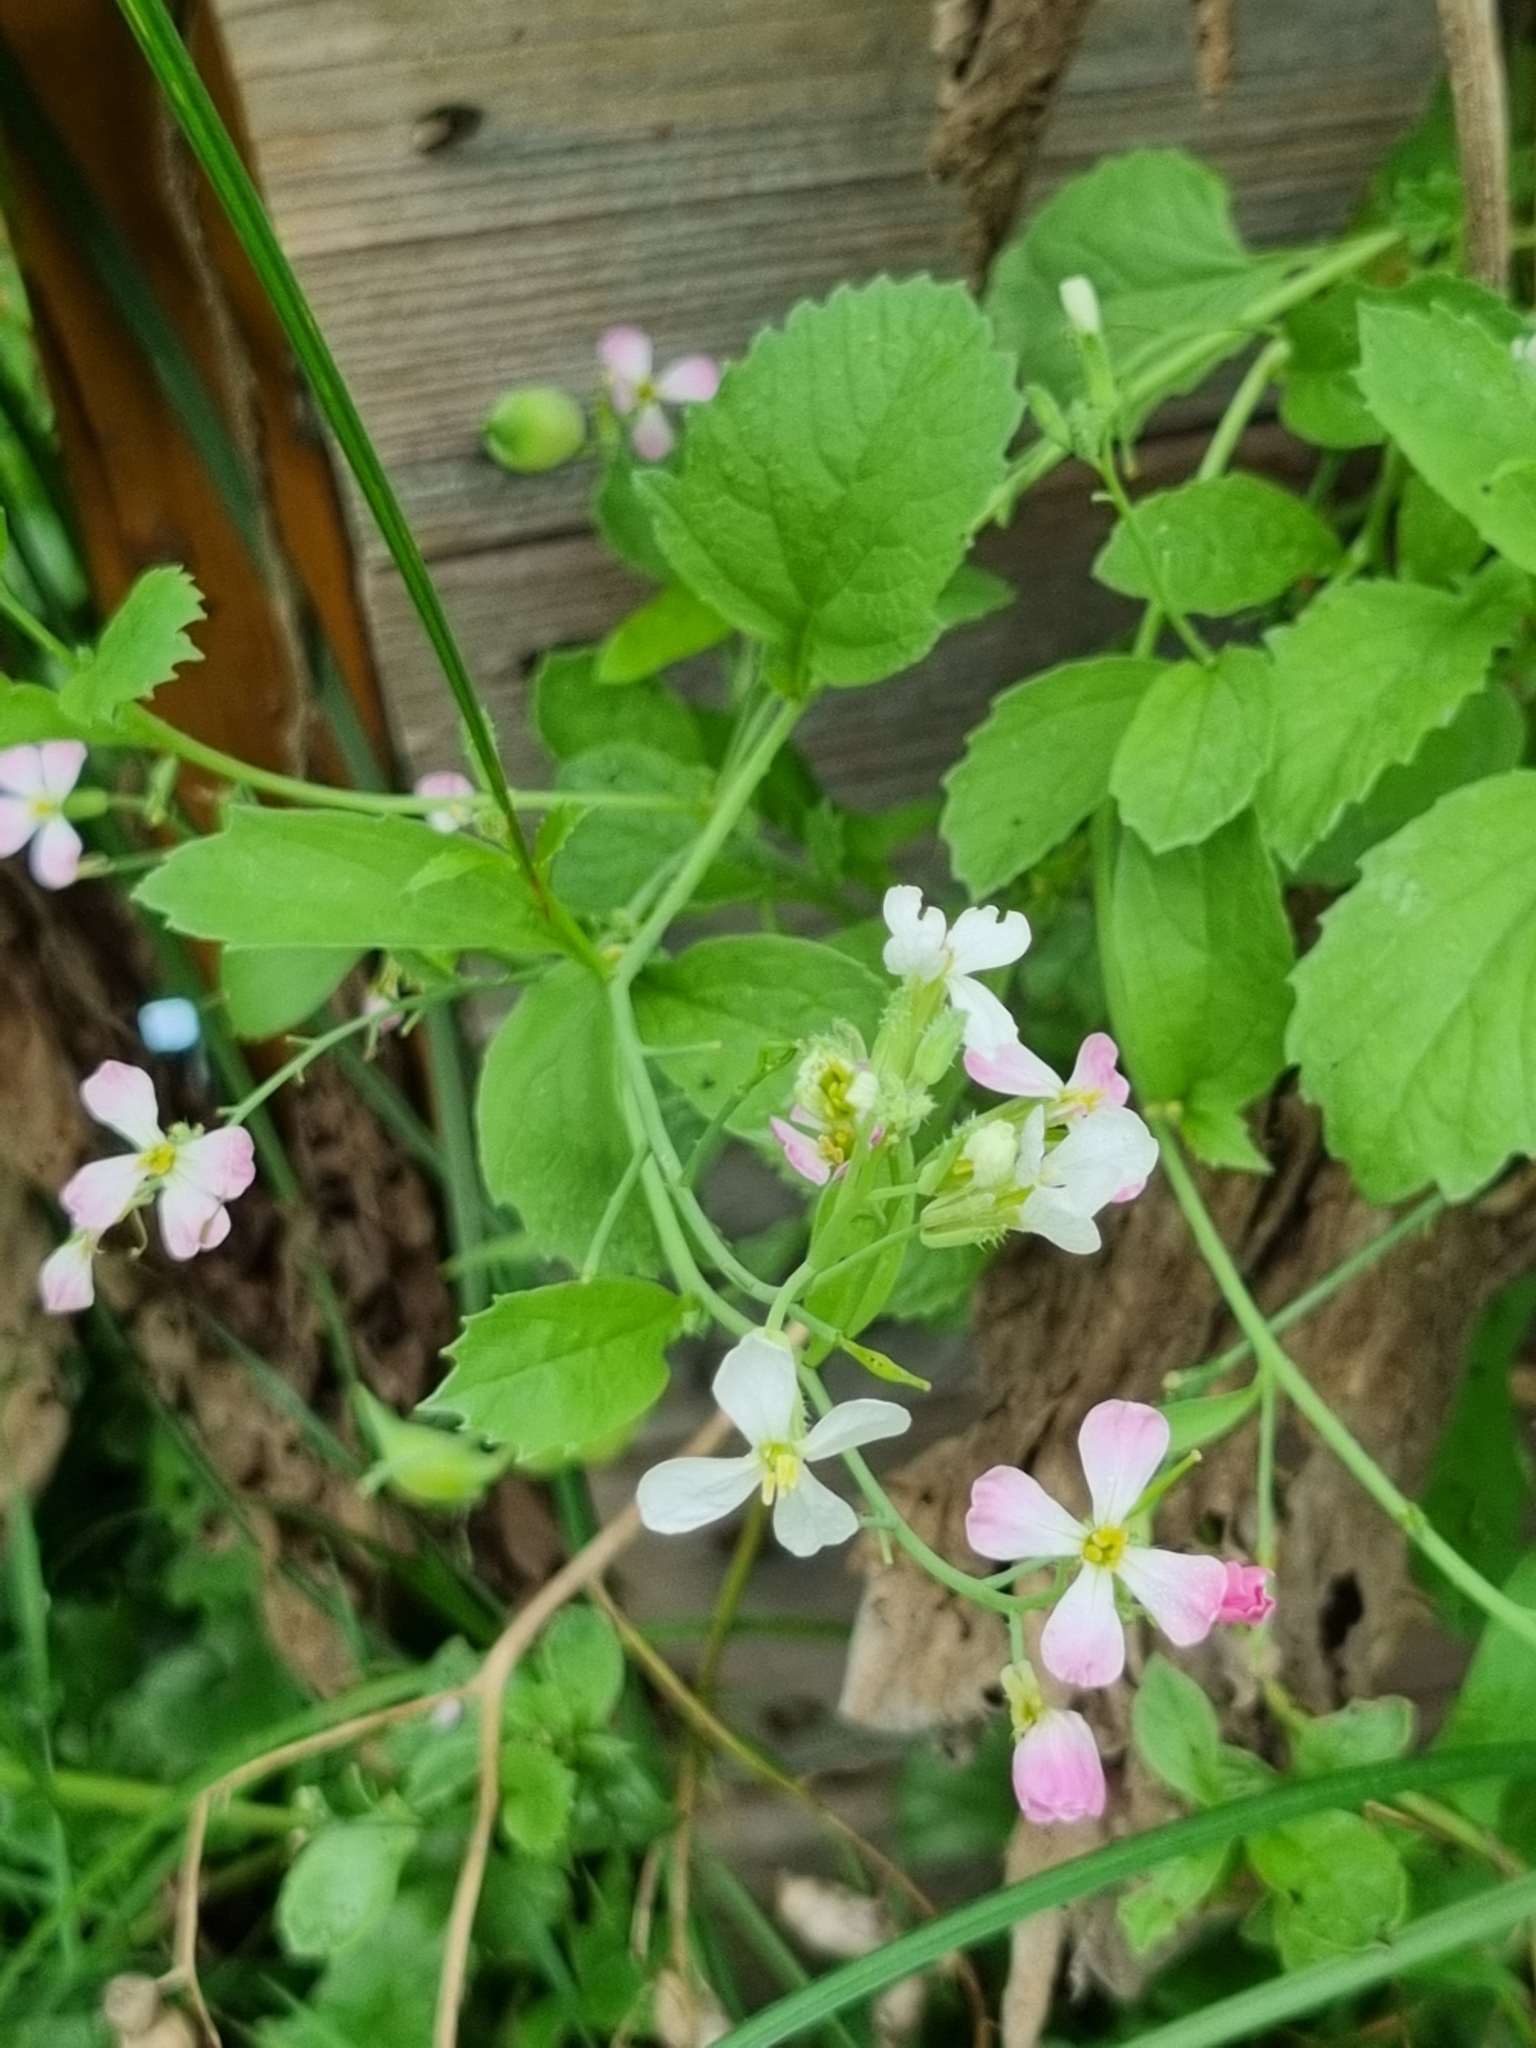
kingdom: Plantae
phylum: Tracheophyta
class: Magnoliopsida
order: Brassicales
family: Brassicaceae
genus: Raphanus
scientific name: Raphanus sativus
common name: Cultivated radish
